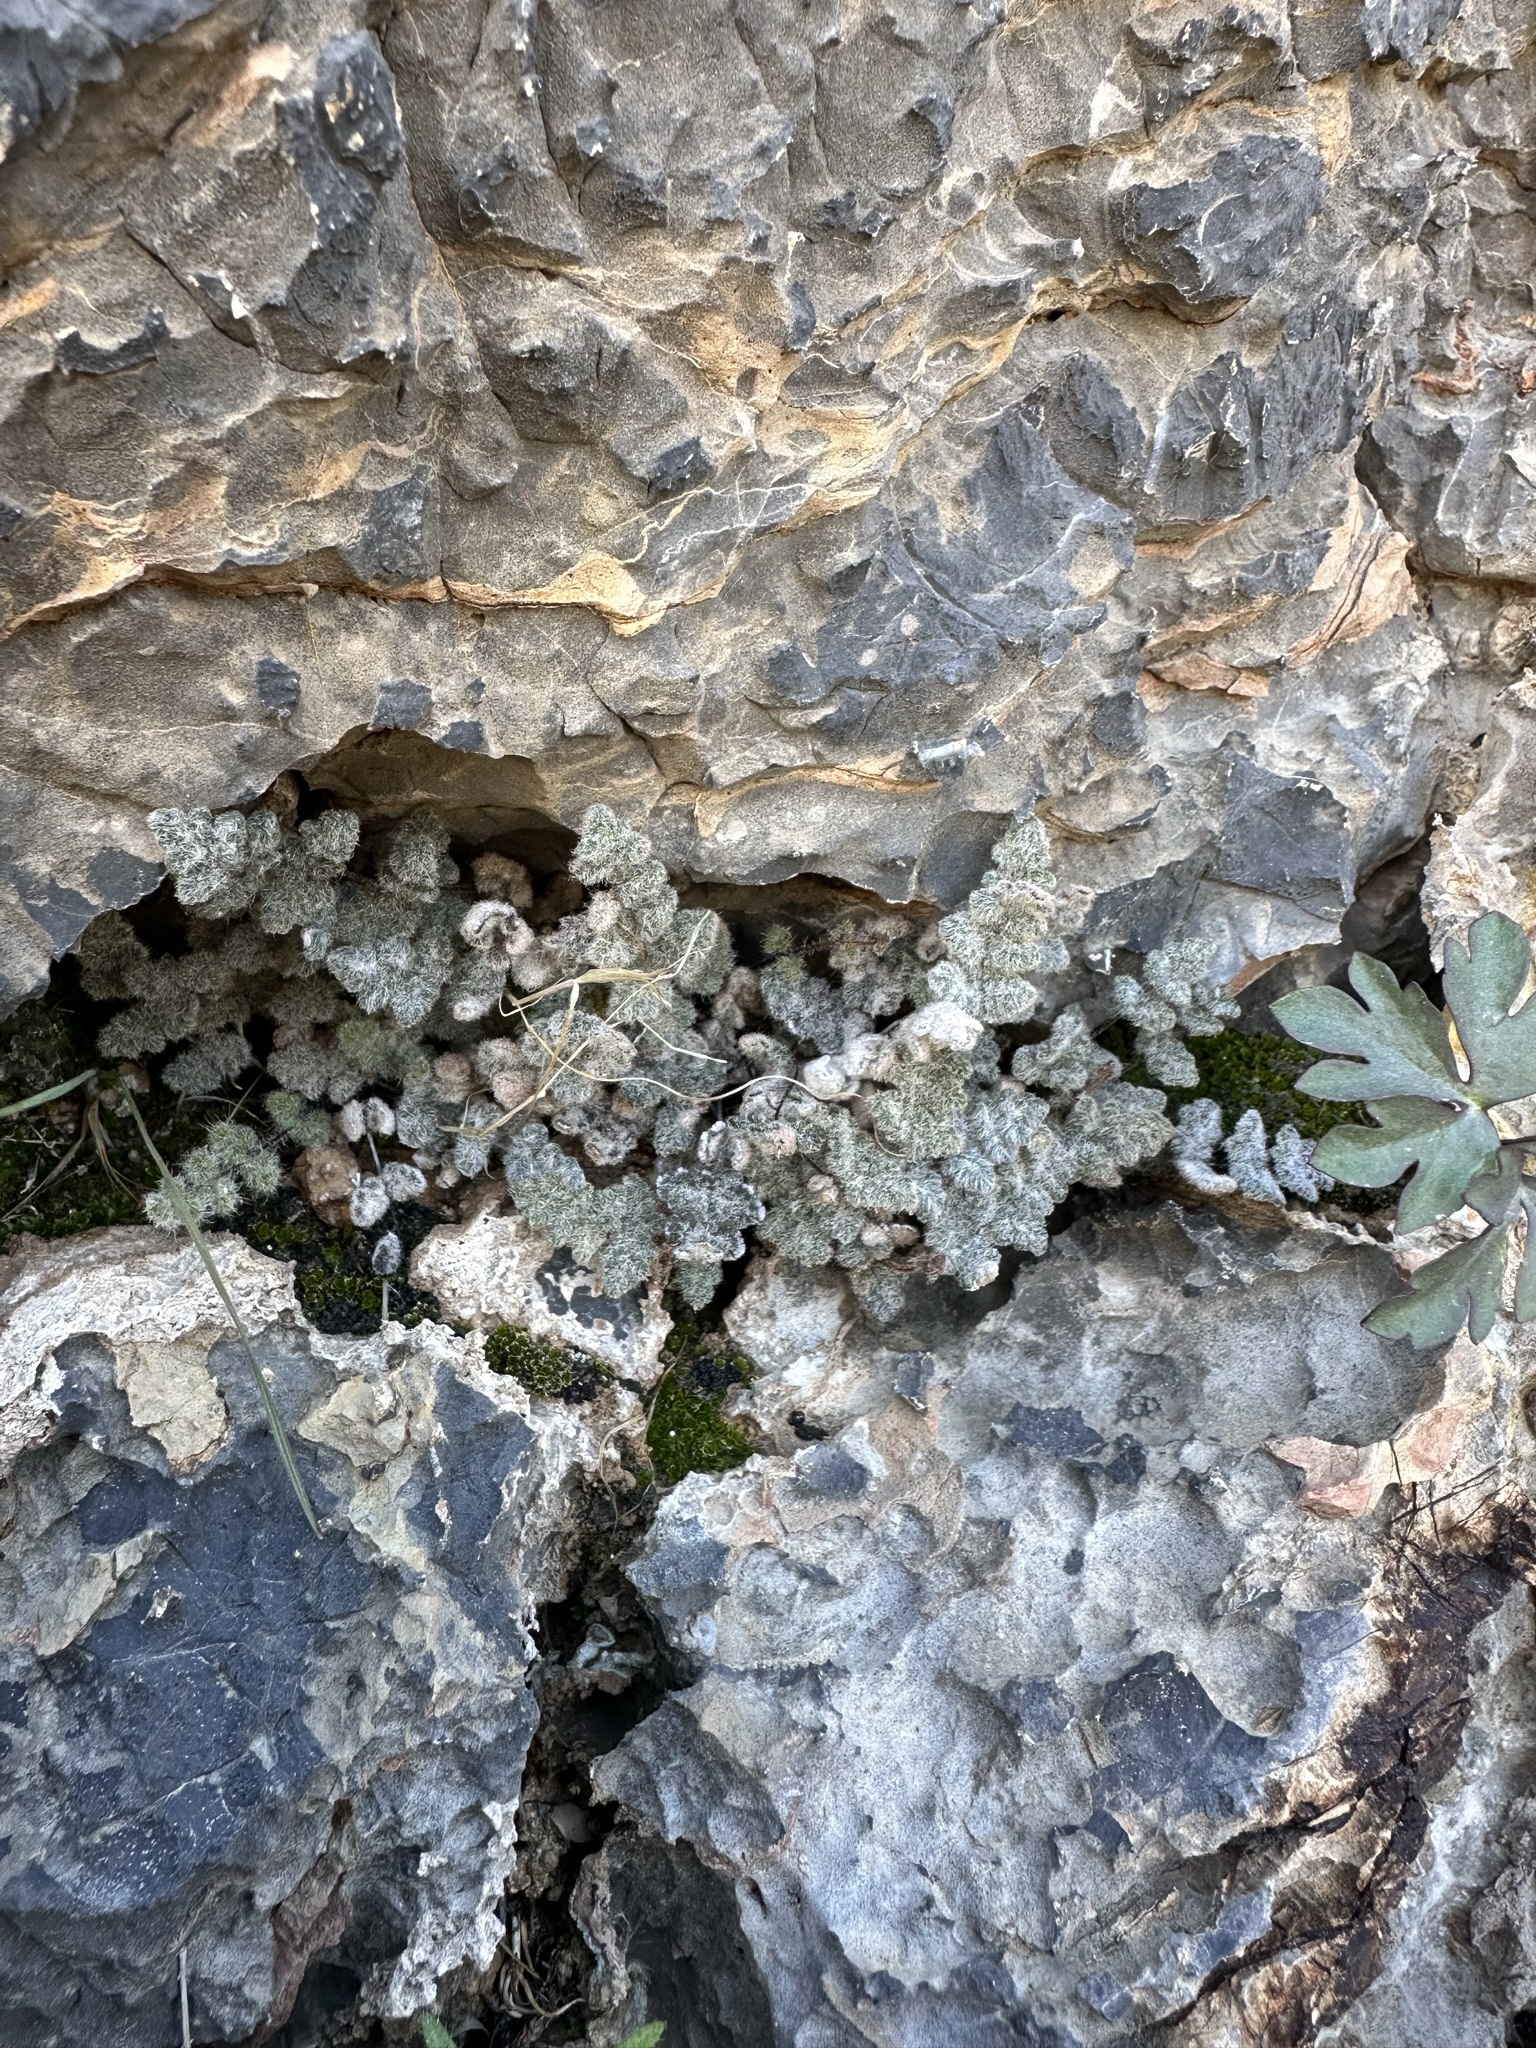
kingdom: Plantae
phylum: Tracheophyta
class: Polypodiopsida
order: Polypodiales
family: Pteridaceae
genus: Myriopteris
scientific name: Myriopteris parryi
